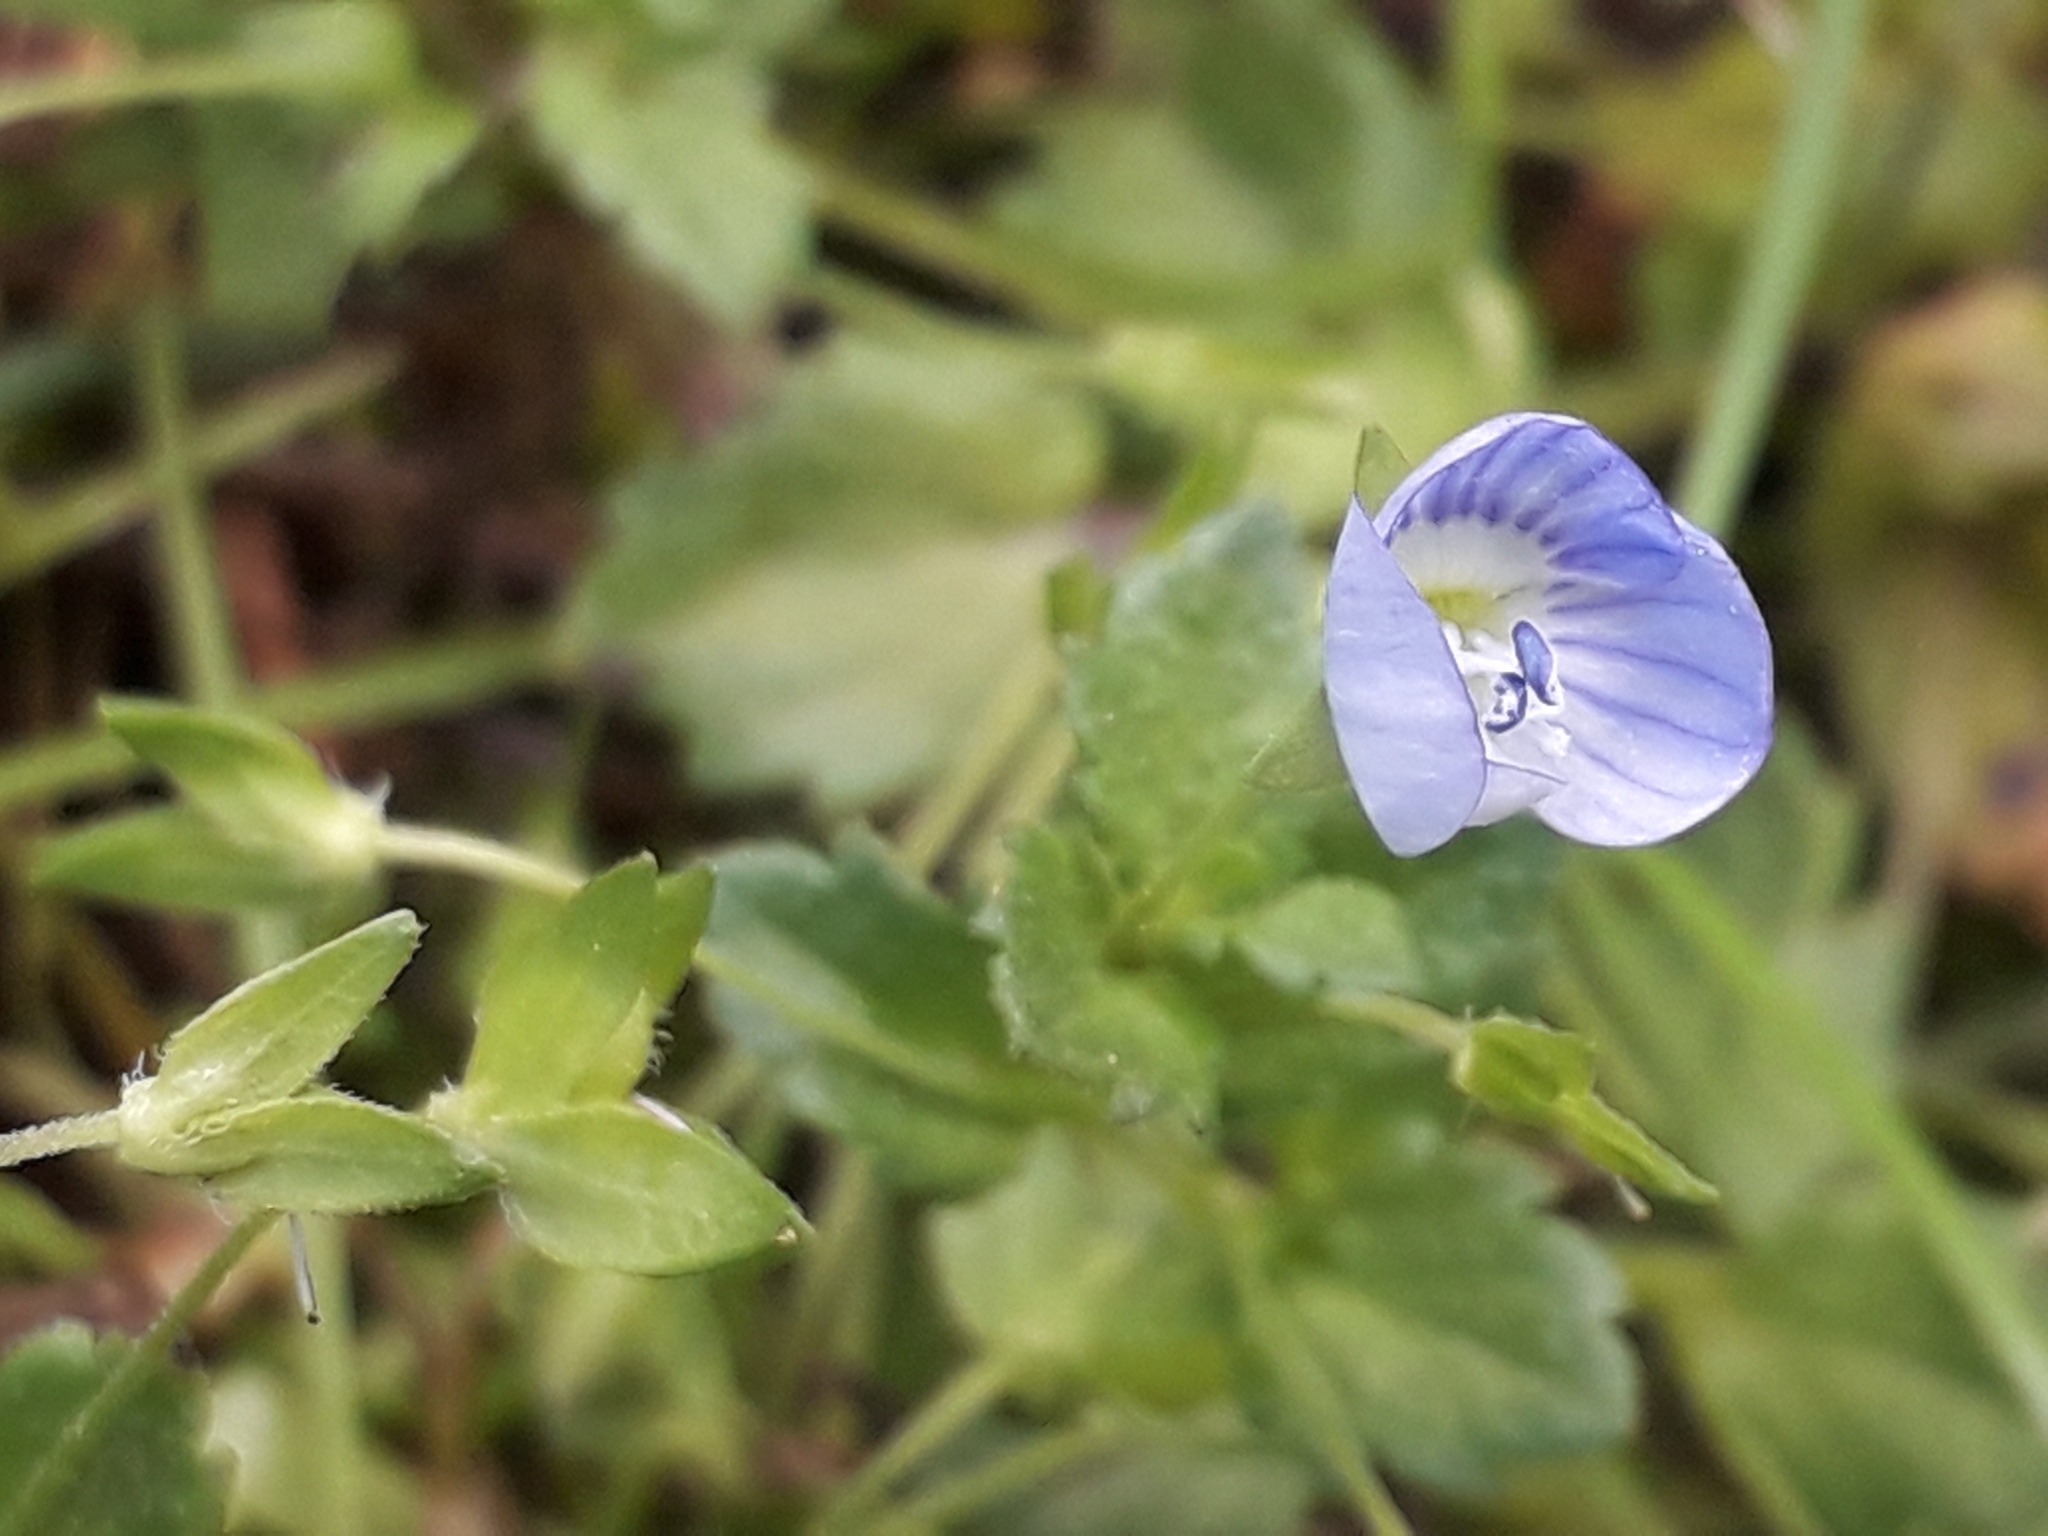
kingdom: Plantae
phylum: Tracheophyta
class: Magnoliopsida
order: Lamiales
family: Plantaginaceae
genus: Veronica
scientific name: Veronica persica
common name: Common field-speedwell
